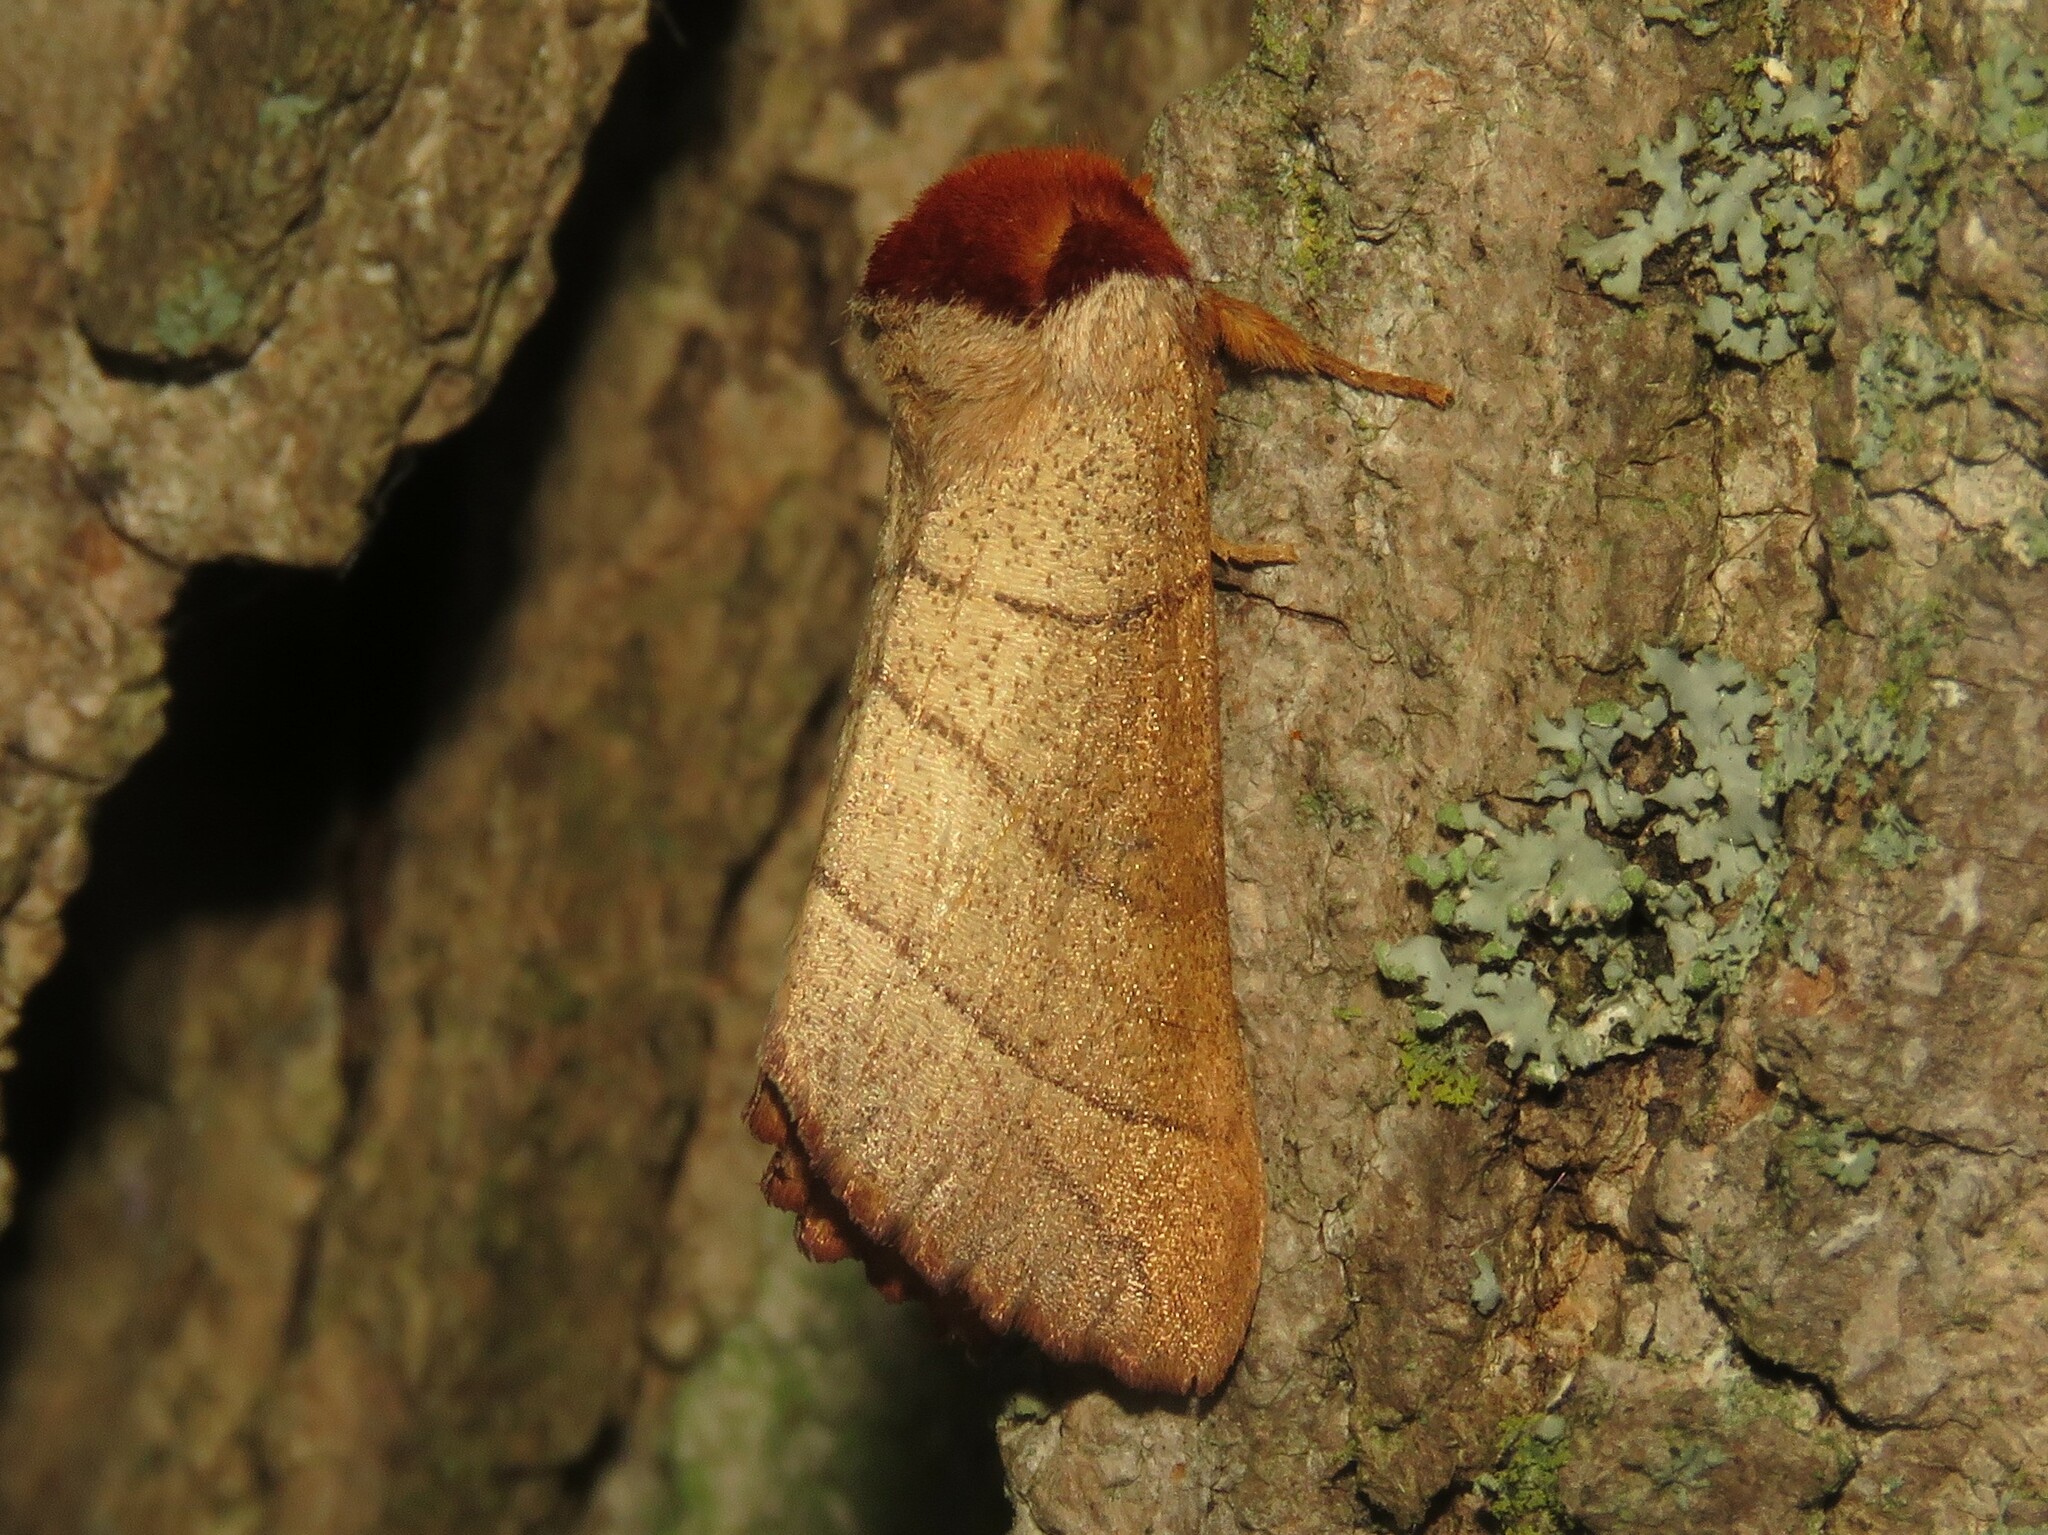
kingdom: Animalia
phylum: Arthropoda
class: Insecta
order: Lepidoptera
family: Notodontidae
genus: Datana
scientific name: Datana ministra
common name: Yellow-necked caterpillar moth
